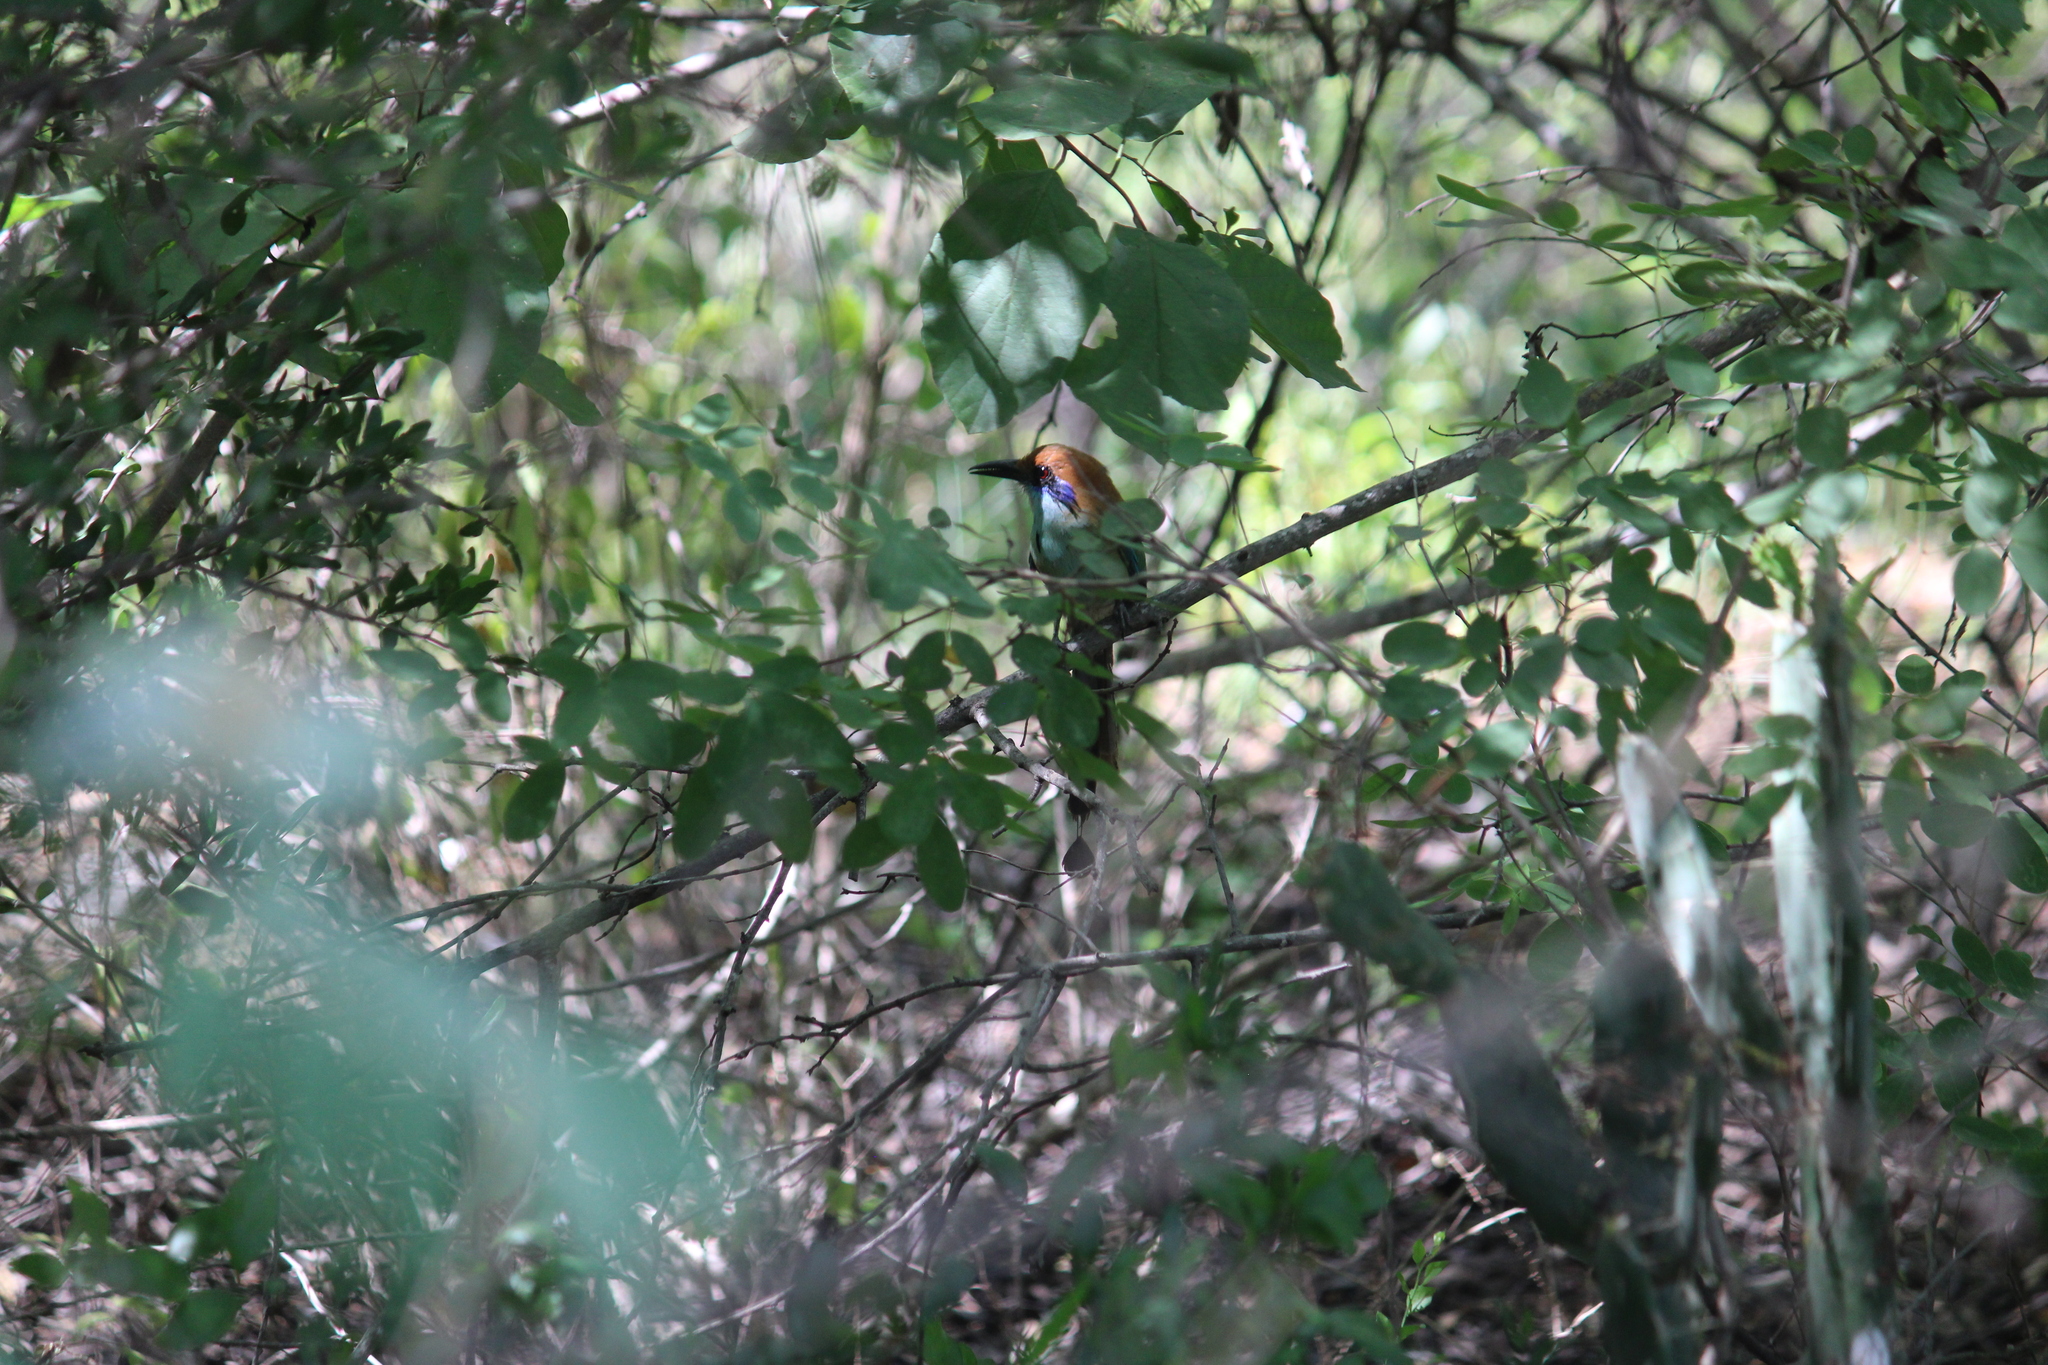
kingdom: Animalia
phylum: Chordata
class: Aves
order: Coraciiformes
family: Momotidae
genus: Momotus
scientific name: Momotus mexicanus
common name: Russet-crowned motmot
